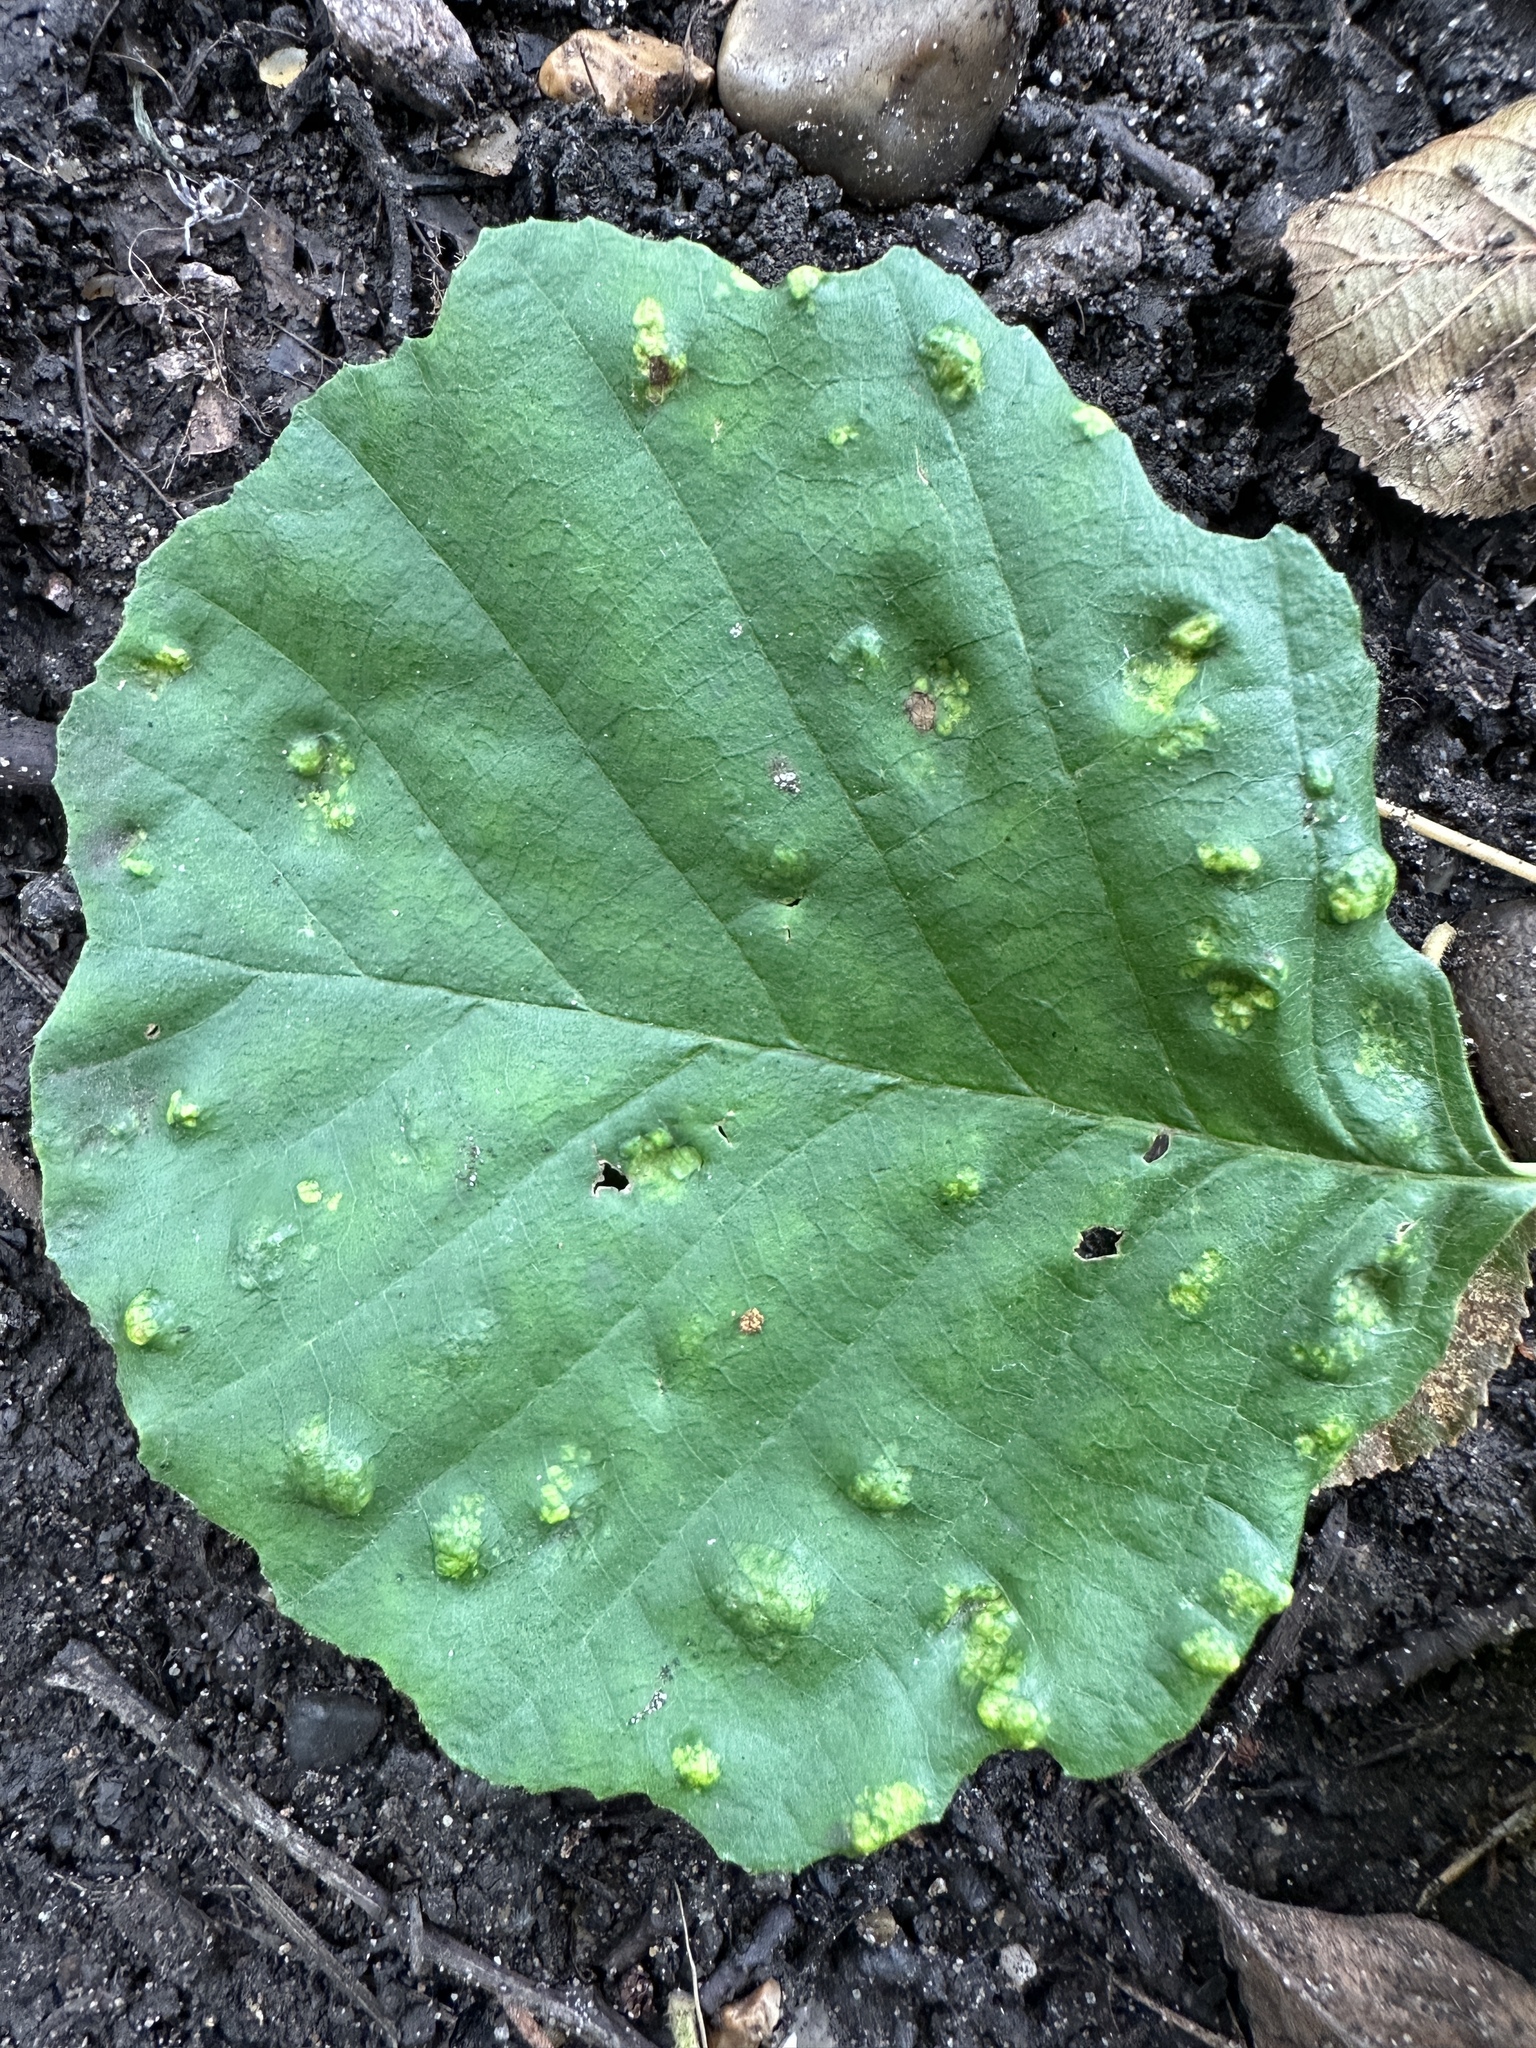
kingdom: Animalia
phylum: Arthropoda
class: Arachnida
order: Trombidiformes
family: Eriophyidae
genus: Acalitus
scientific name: Acalitus brevitarsus
